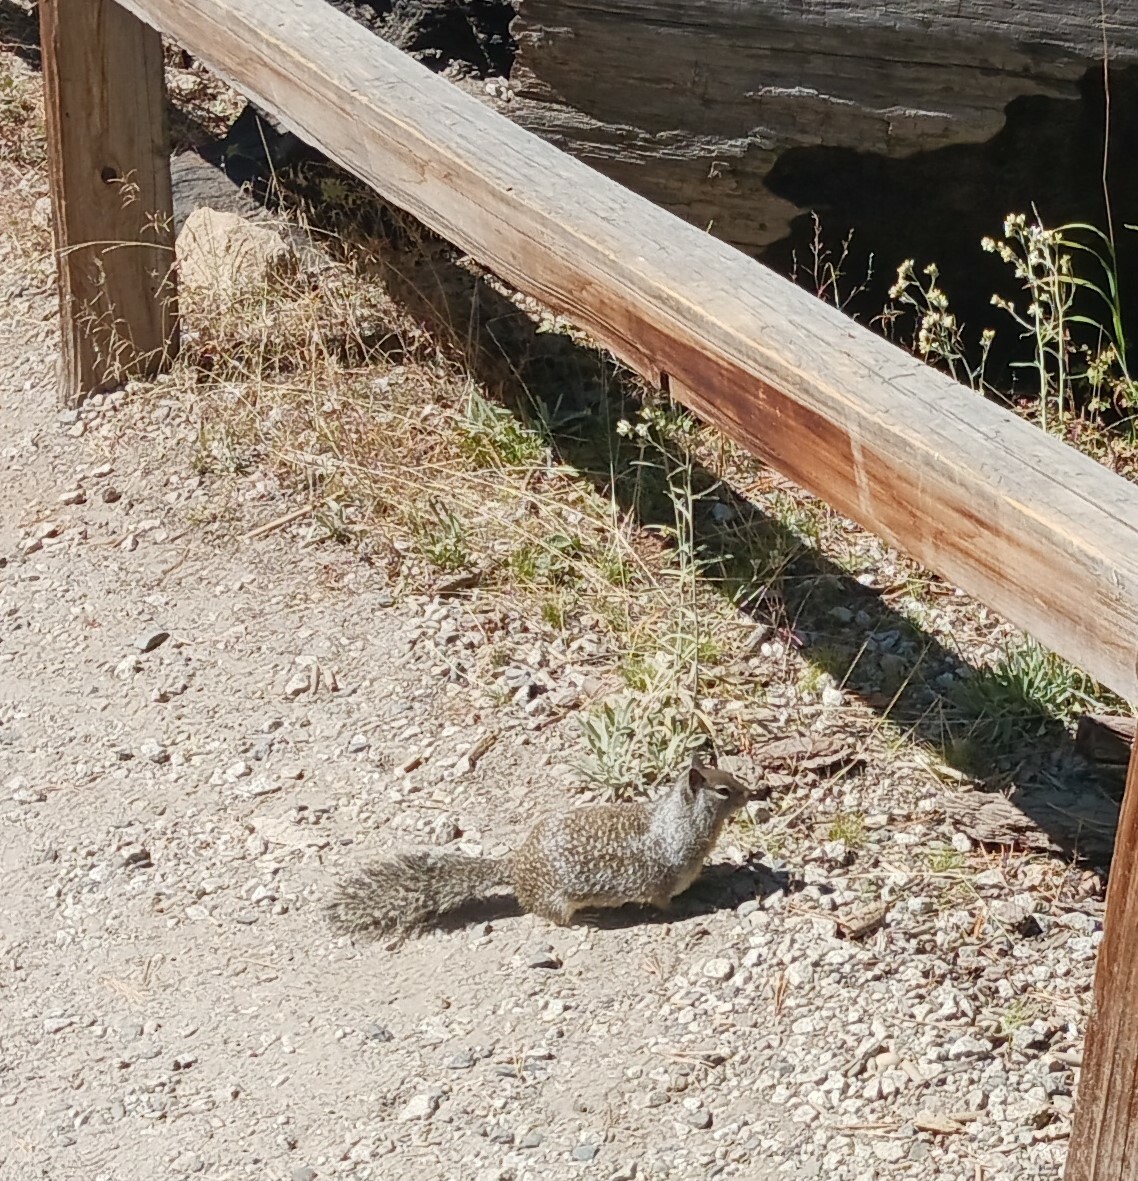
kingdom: Animalia
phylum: Chordata
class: Mammalia
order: Rodentia
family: Sciuridae
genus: Otospermophilus
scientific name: Otospermophilus beecheyi
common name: California ground squirrel
